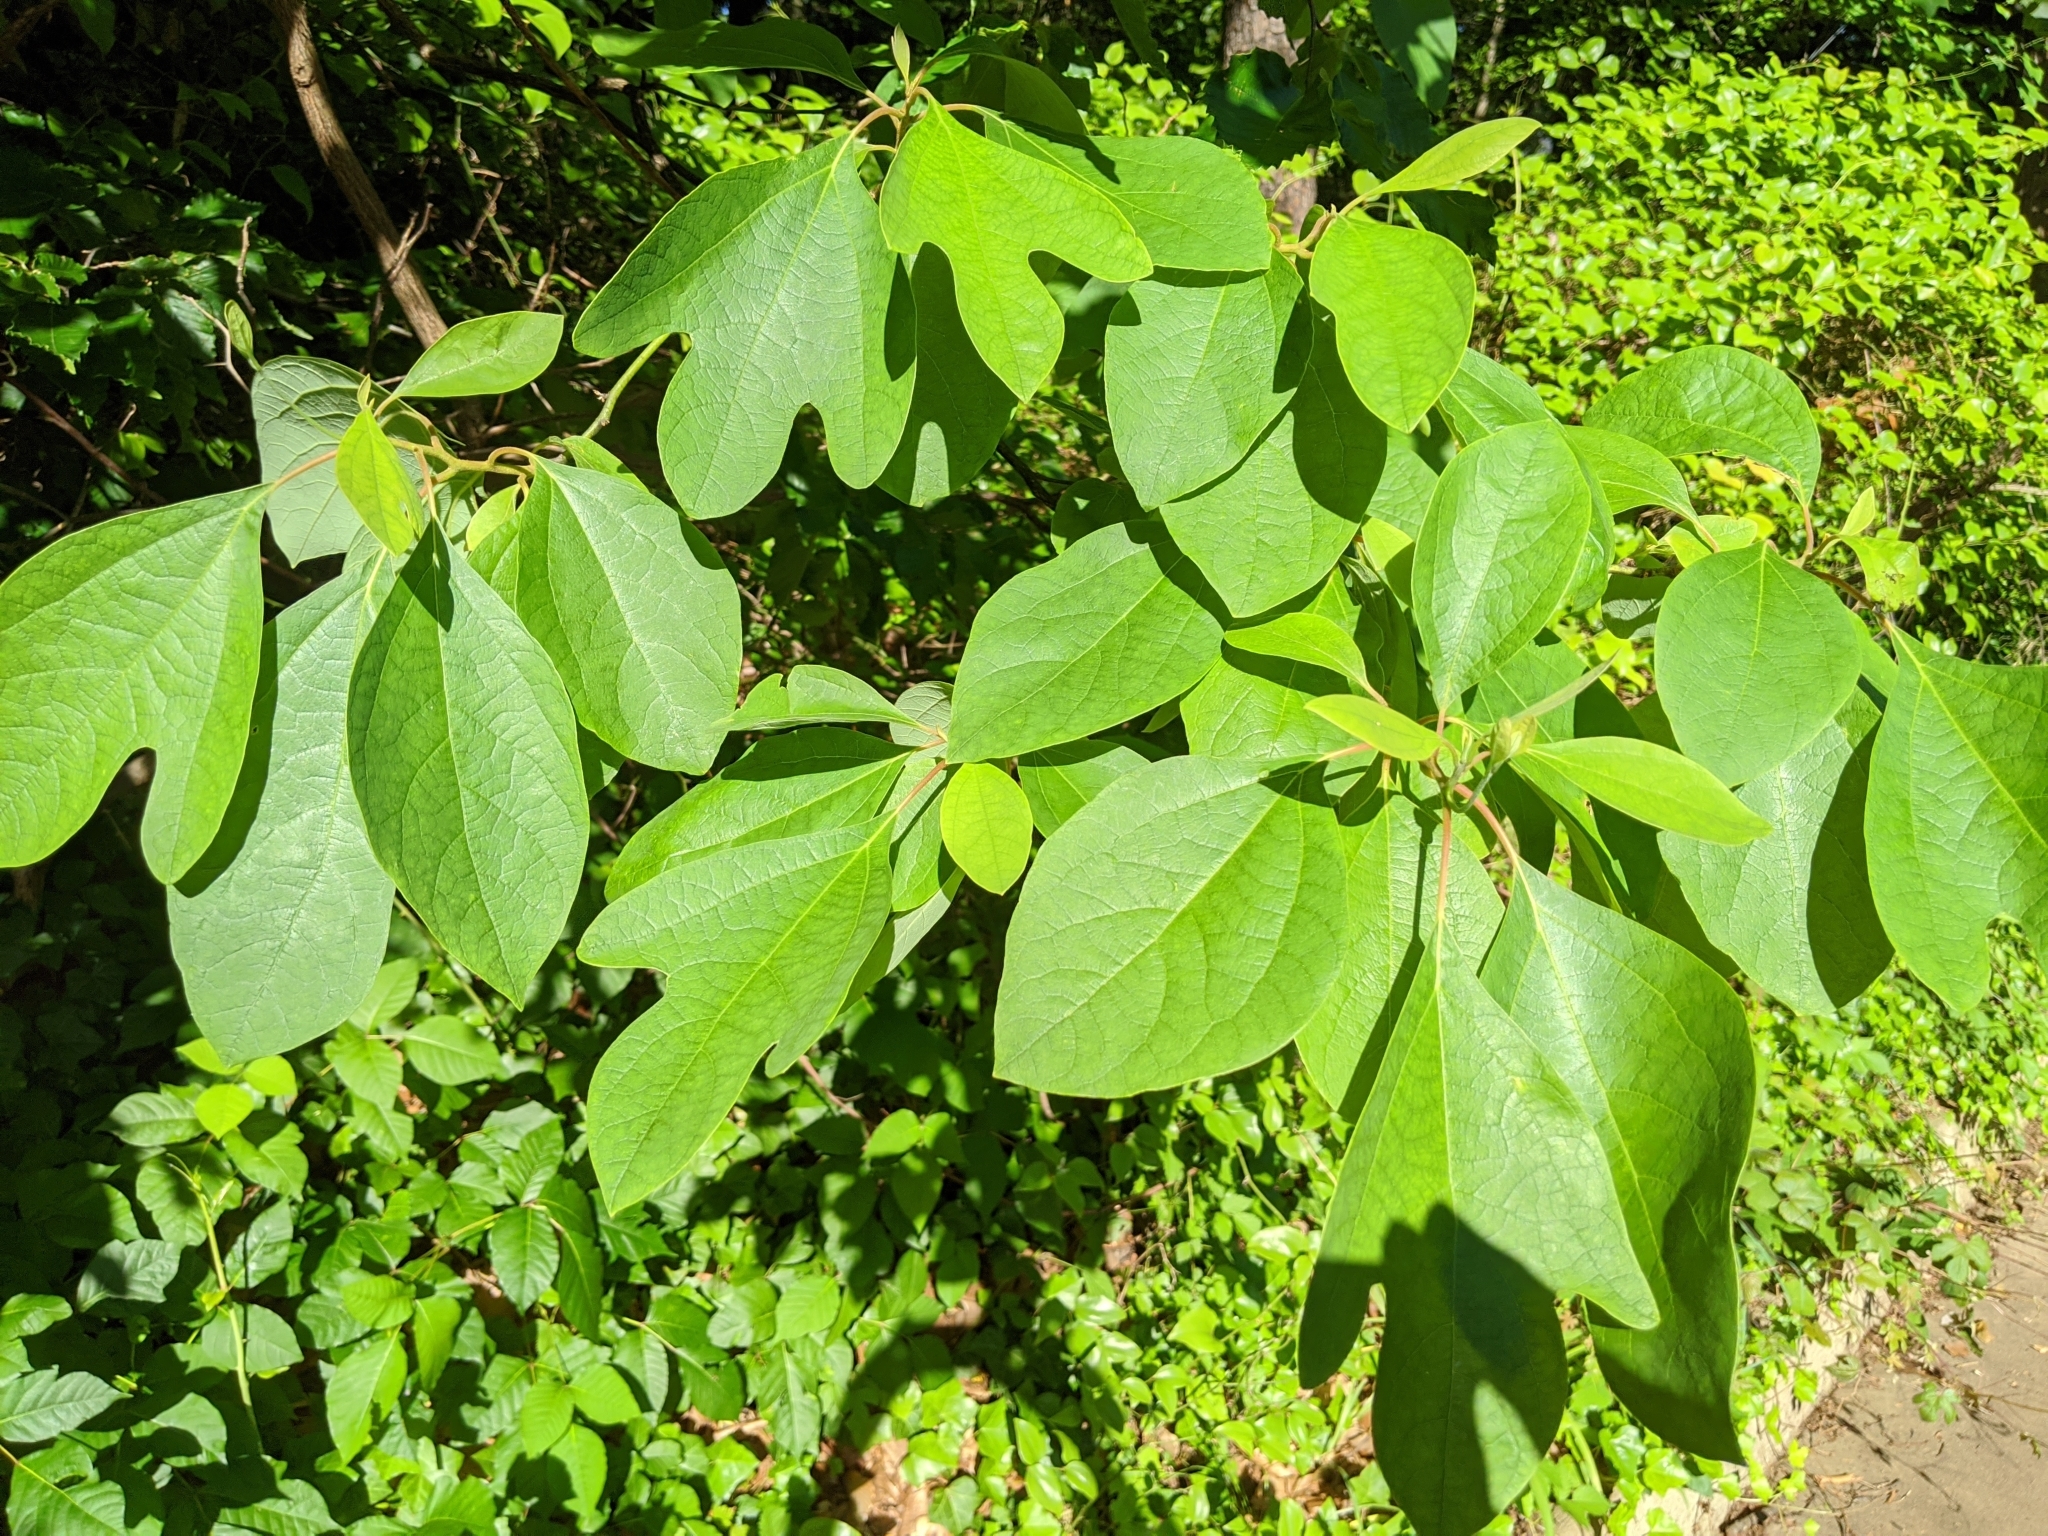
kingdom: Plantae
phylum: Tracheophyta
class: Magnoliopsida
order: Laurales
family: Lauraceae
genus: Sassafras
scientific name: Sassafras albidum
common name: Sassafras
